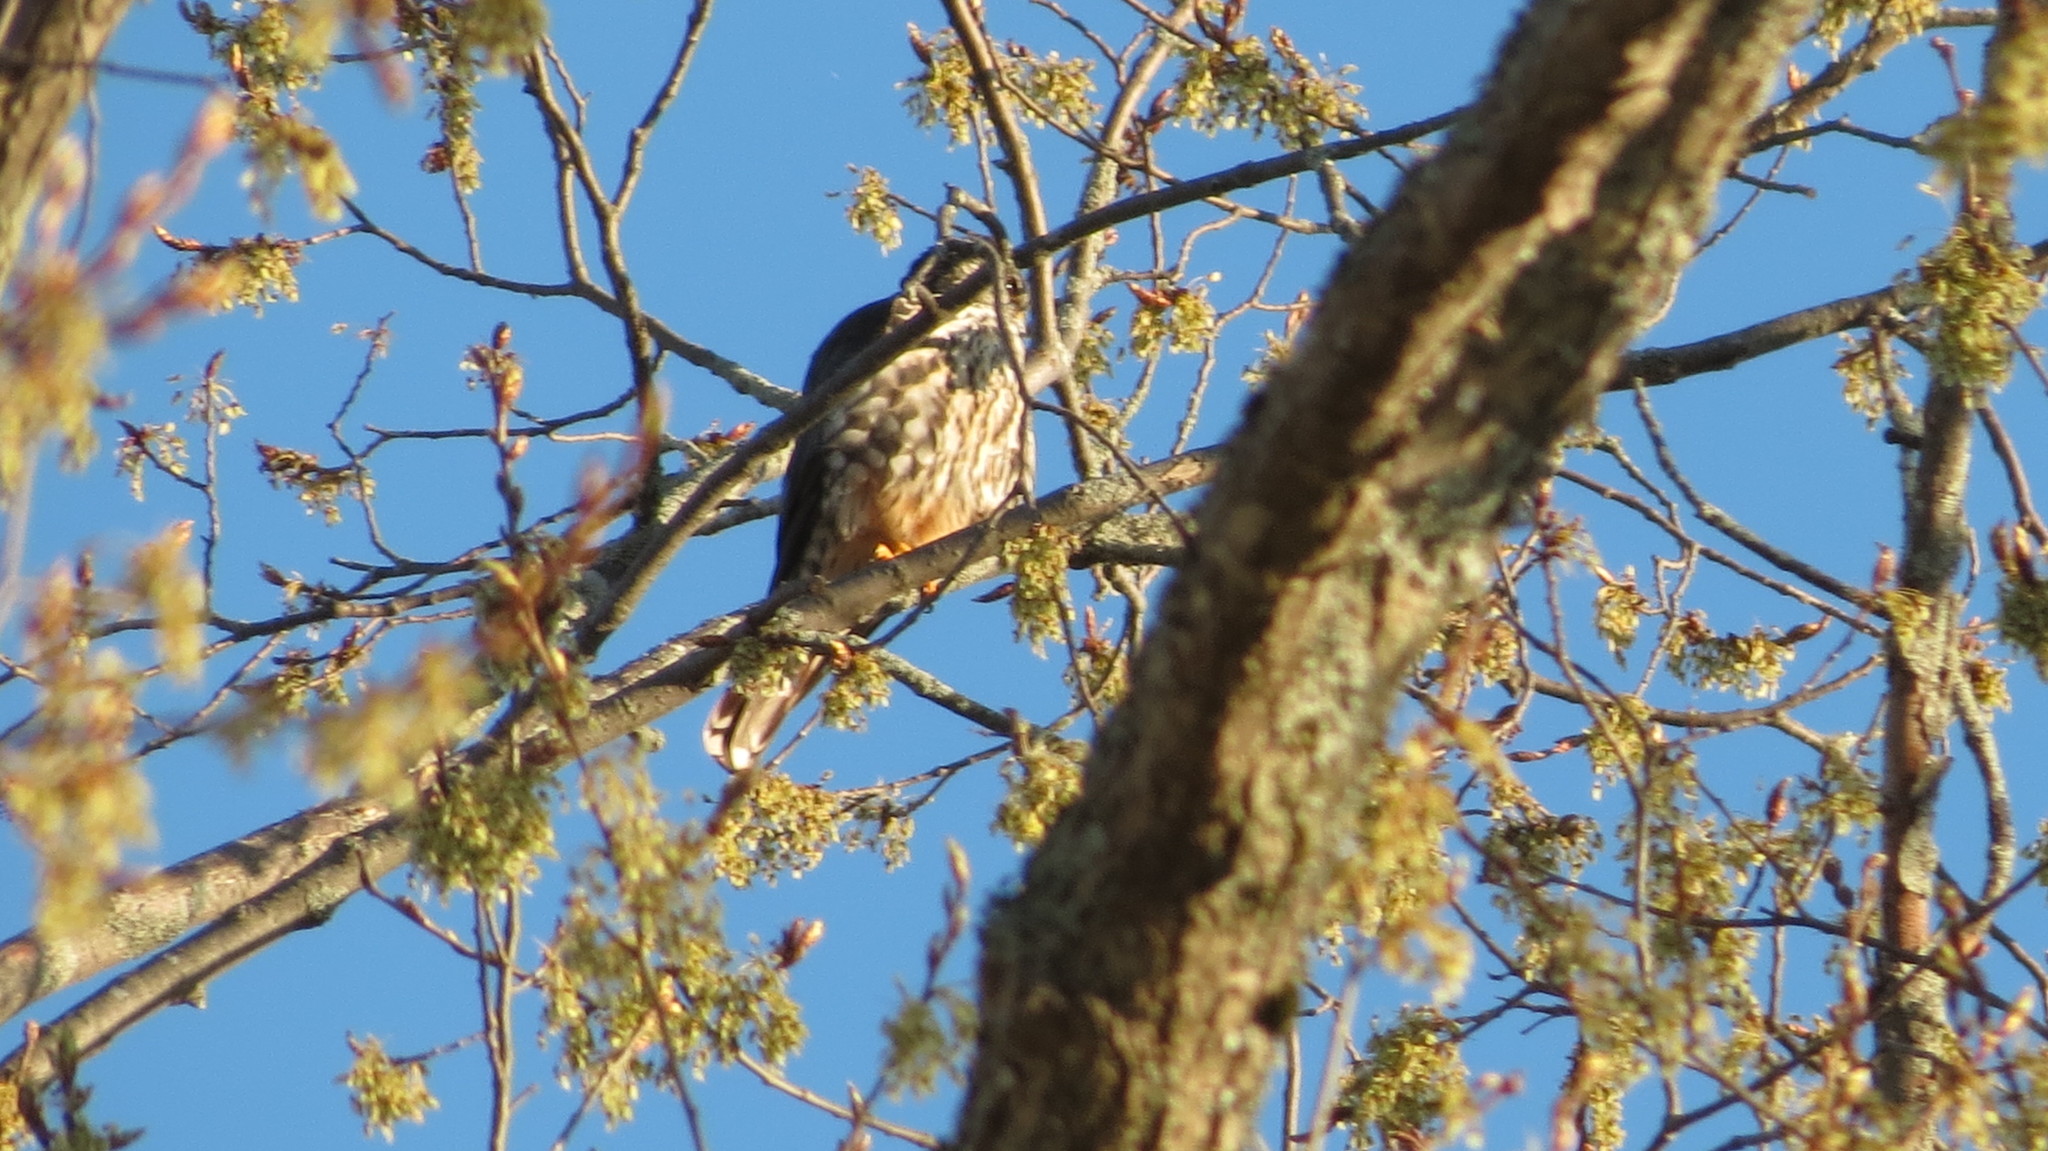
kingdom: Animalia
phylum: Chordata
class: Aves
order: Falconiformes
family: Falconidae
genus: Falco
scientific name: Falco columbarius
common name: Merlin
